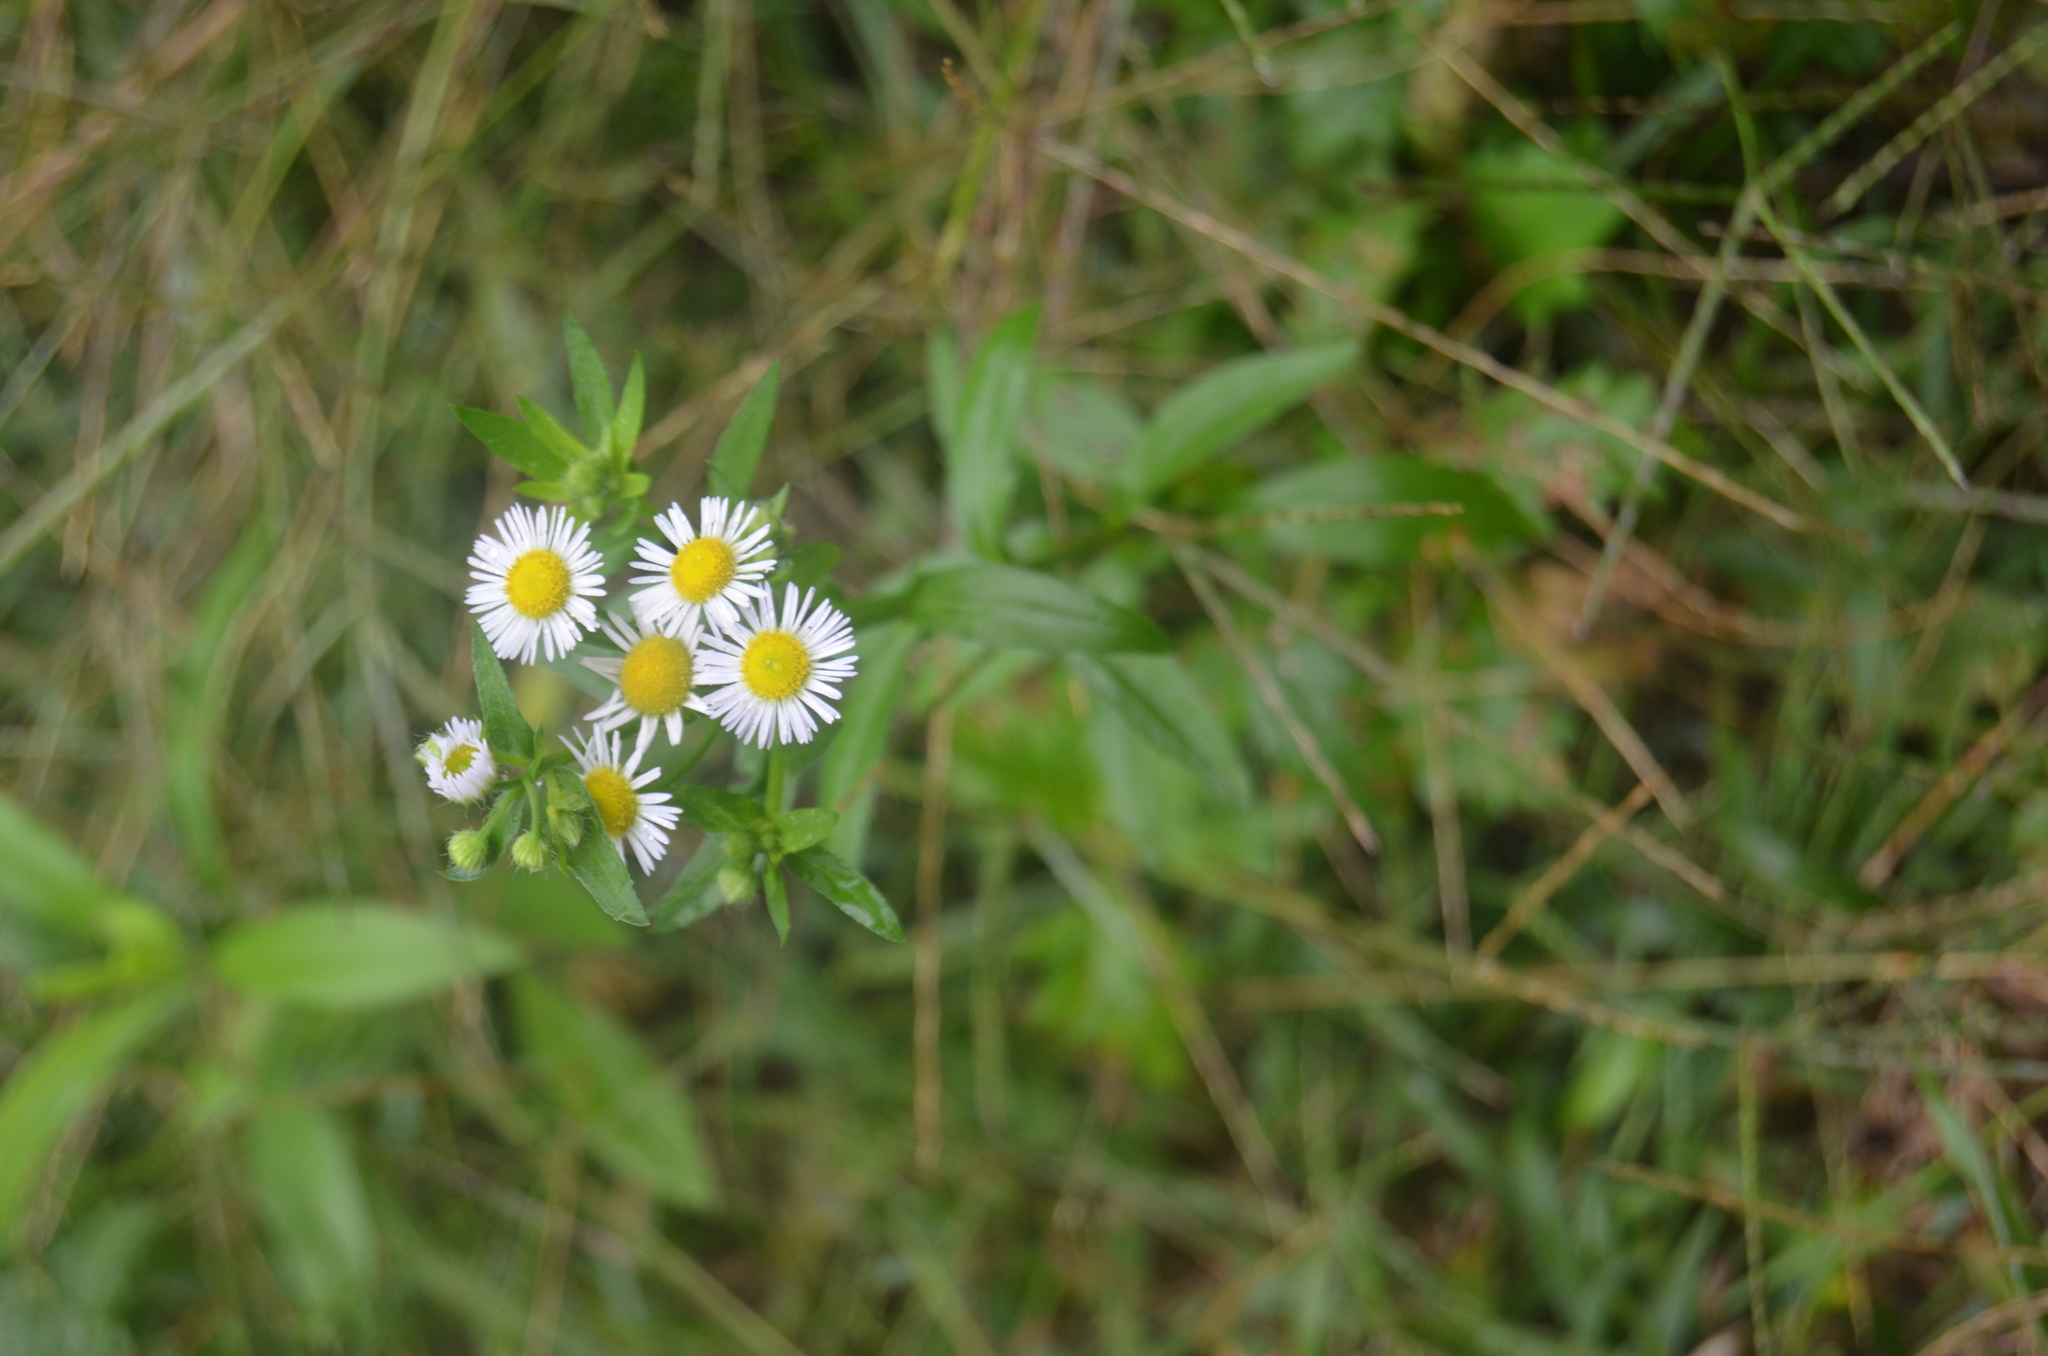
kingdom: Plantae
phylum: Tracheophyta
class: Magnoliopsida
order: Asterales
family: Asteraceae
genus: Erigeron
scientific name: Erigeron annuus
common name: Tall fleabane
